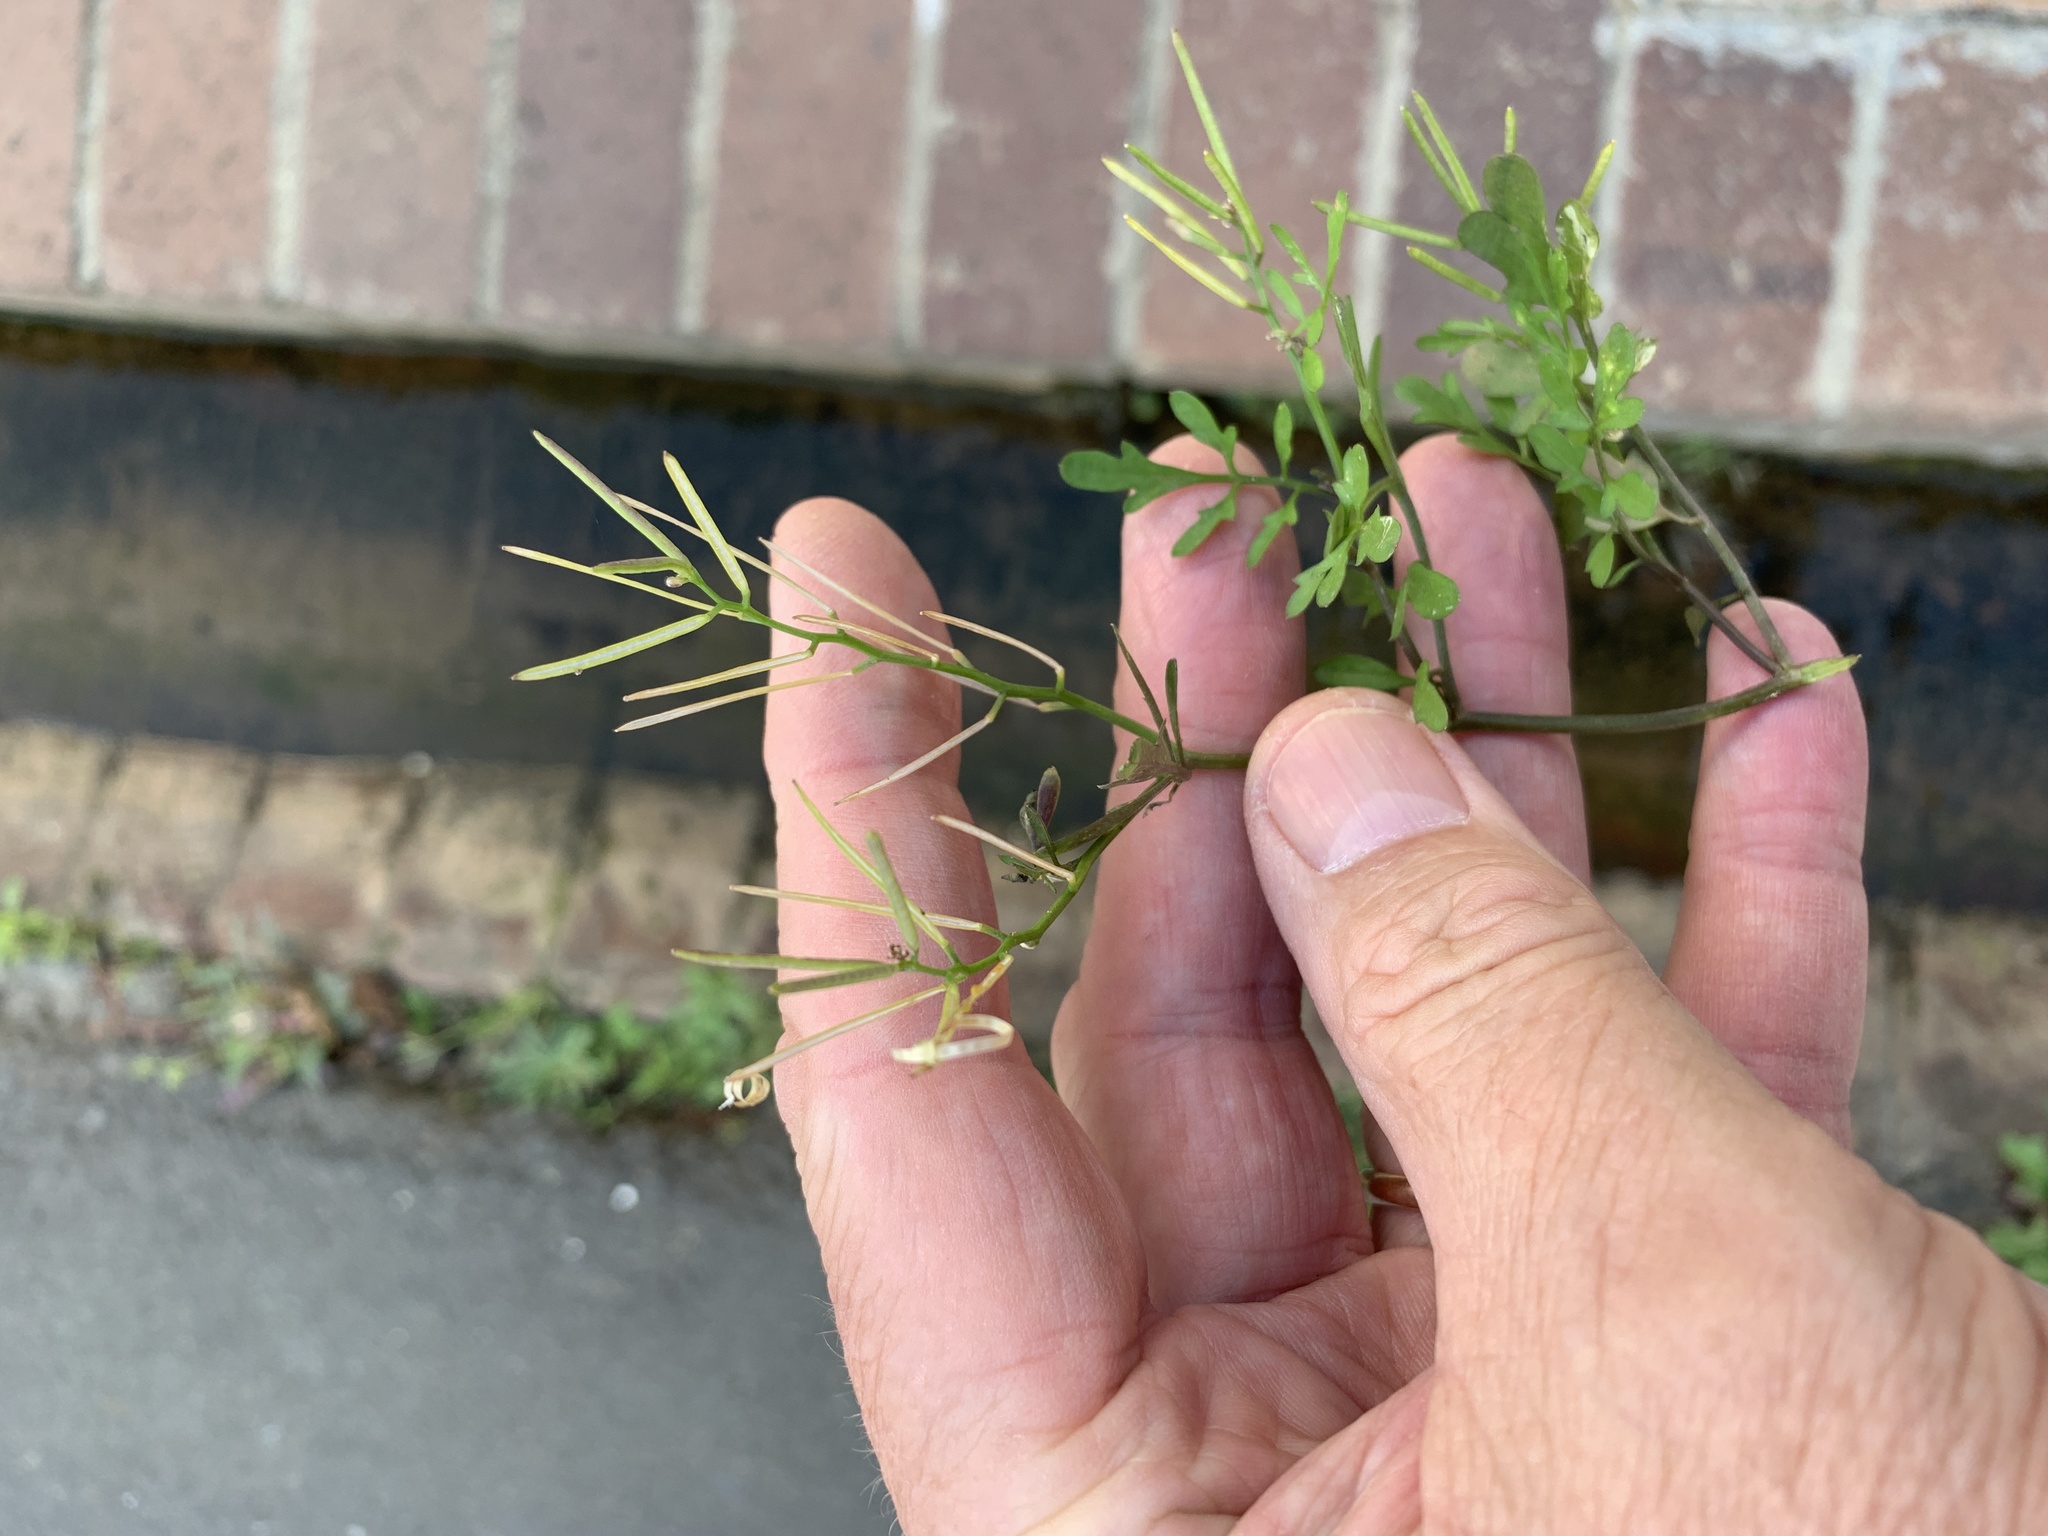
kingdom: Plantae
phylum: Tracheophyta
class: Magnoliopsida
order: Brassicales
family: Brassicaceae
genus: Cardamine
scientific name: Cardamine occulta
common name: Asian wavy bittercress
